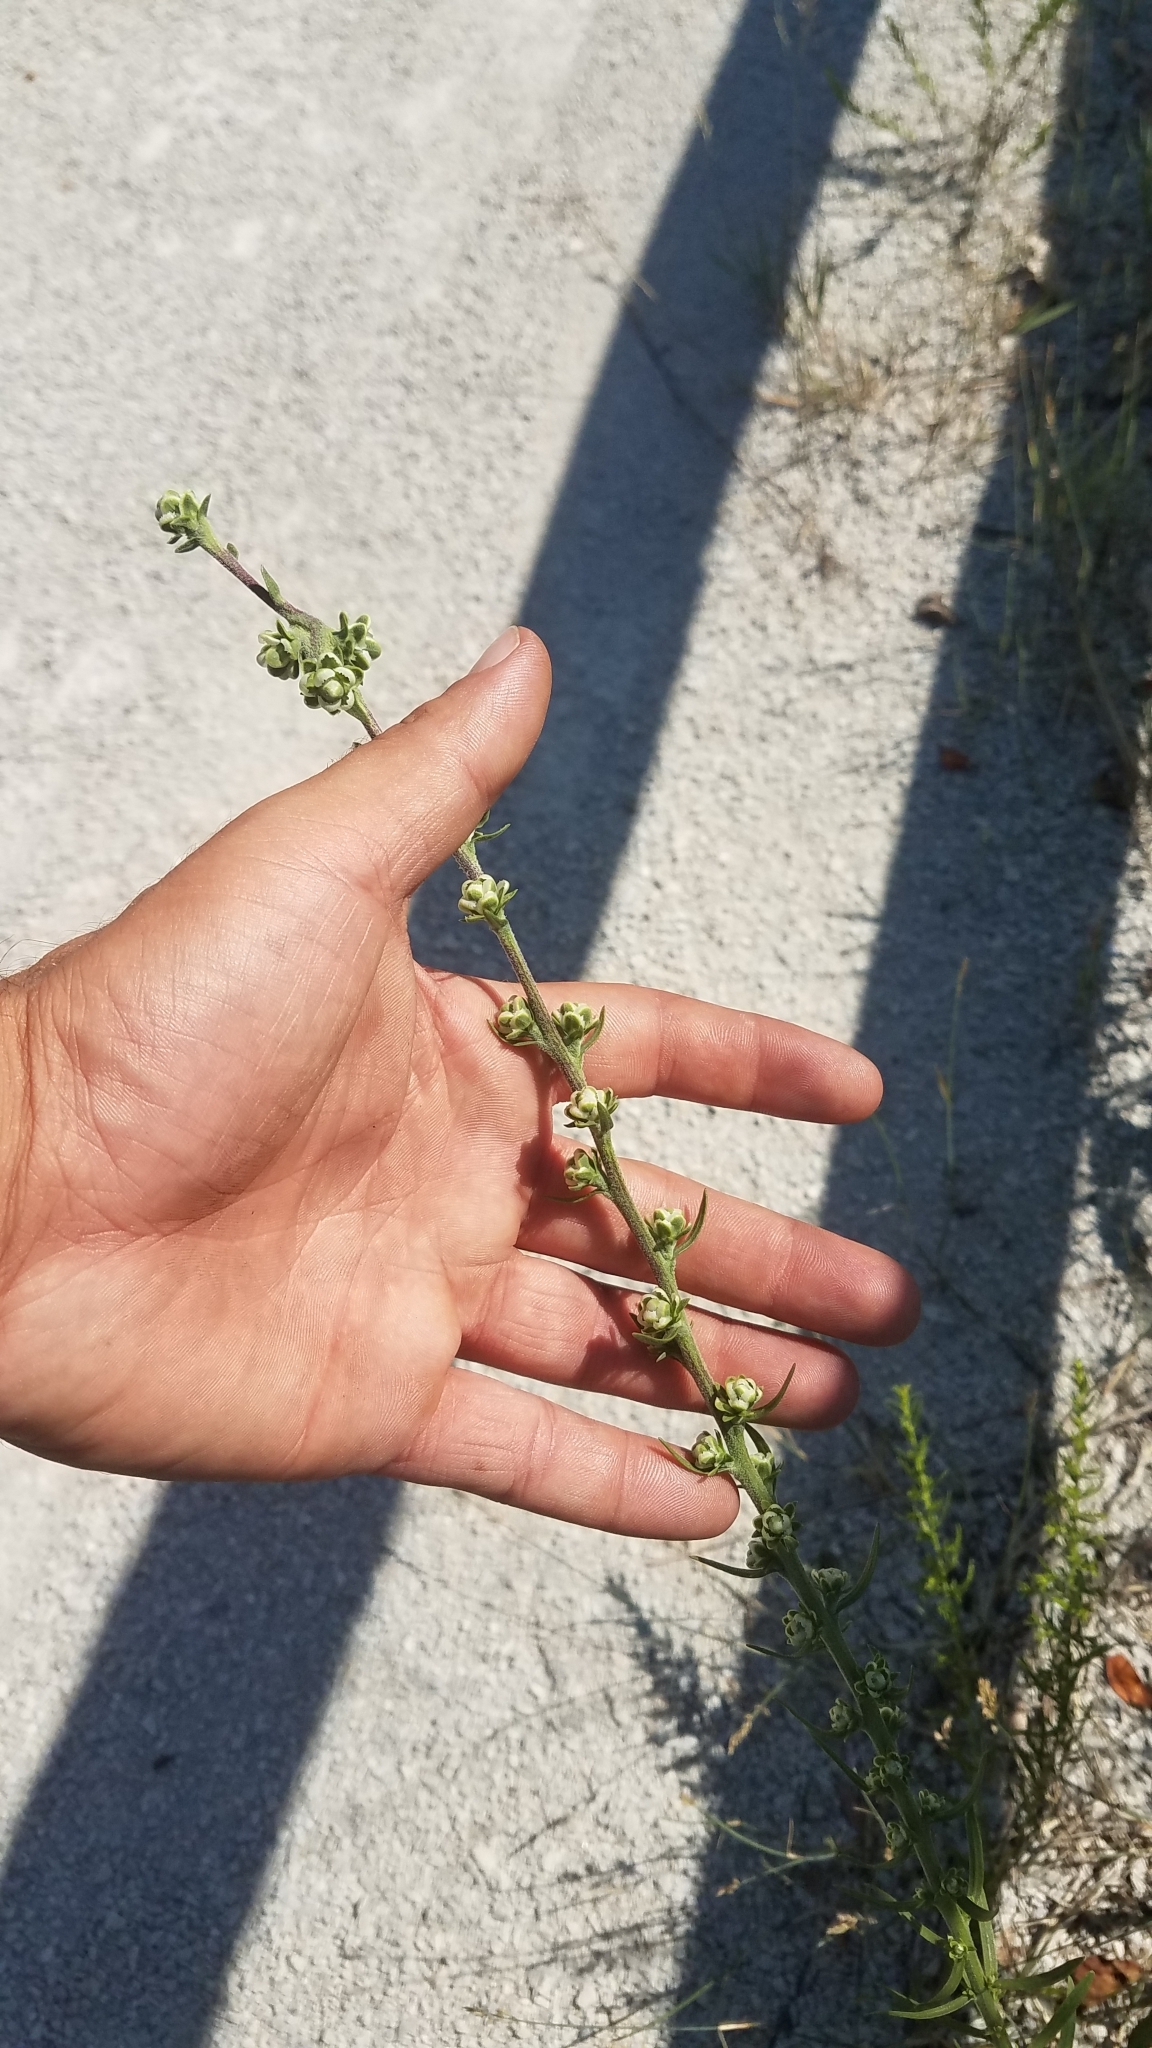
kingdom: Plantae
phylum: Tracheophyta
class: Magnoliopsida
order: Asterales
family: Asteraceae
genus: Liatris
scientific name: Liatris aspera
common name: Lacerate blazing-star
